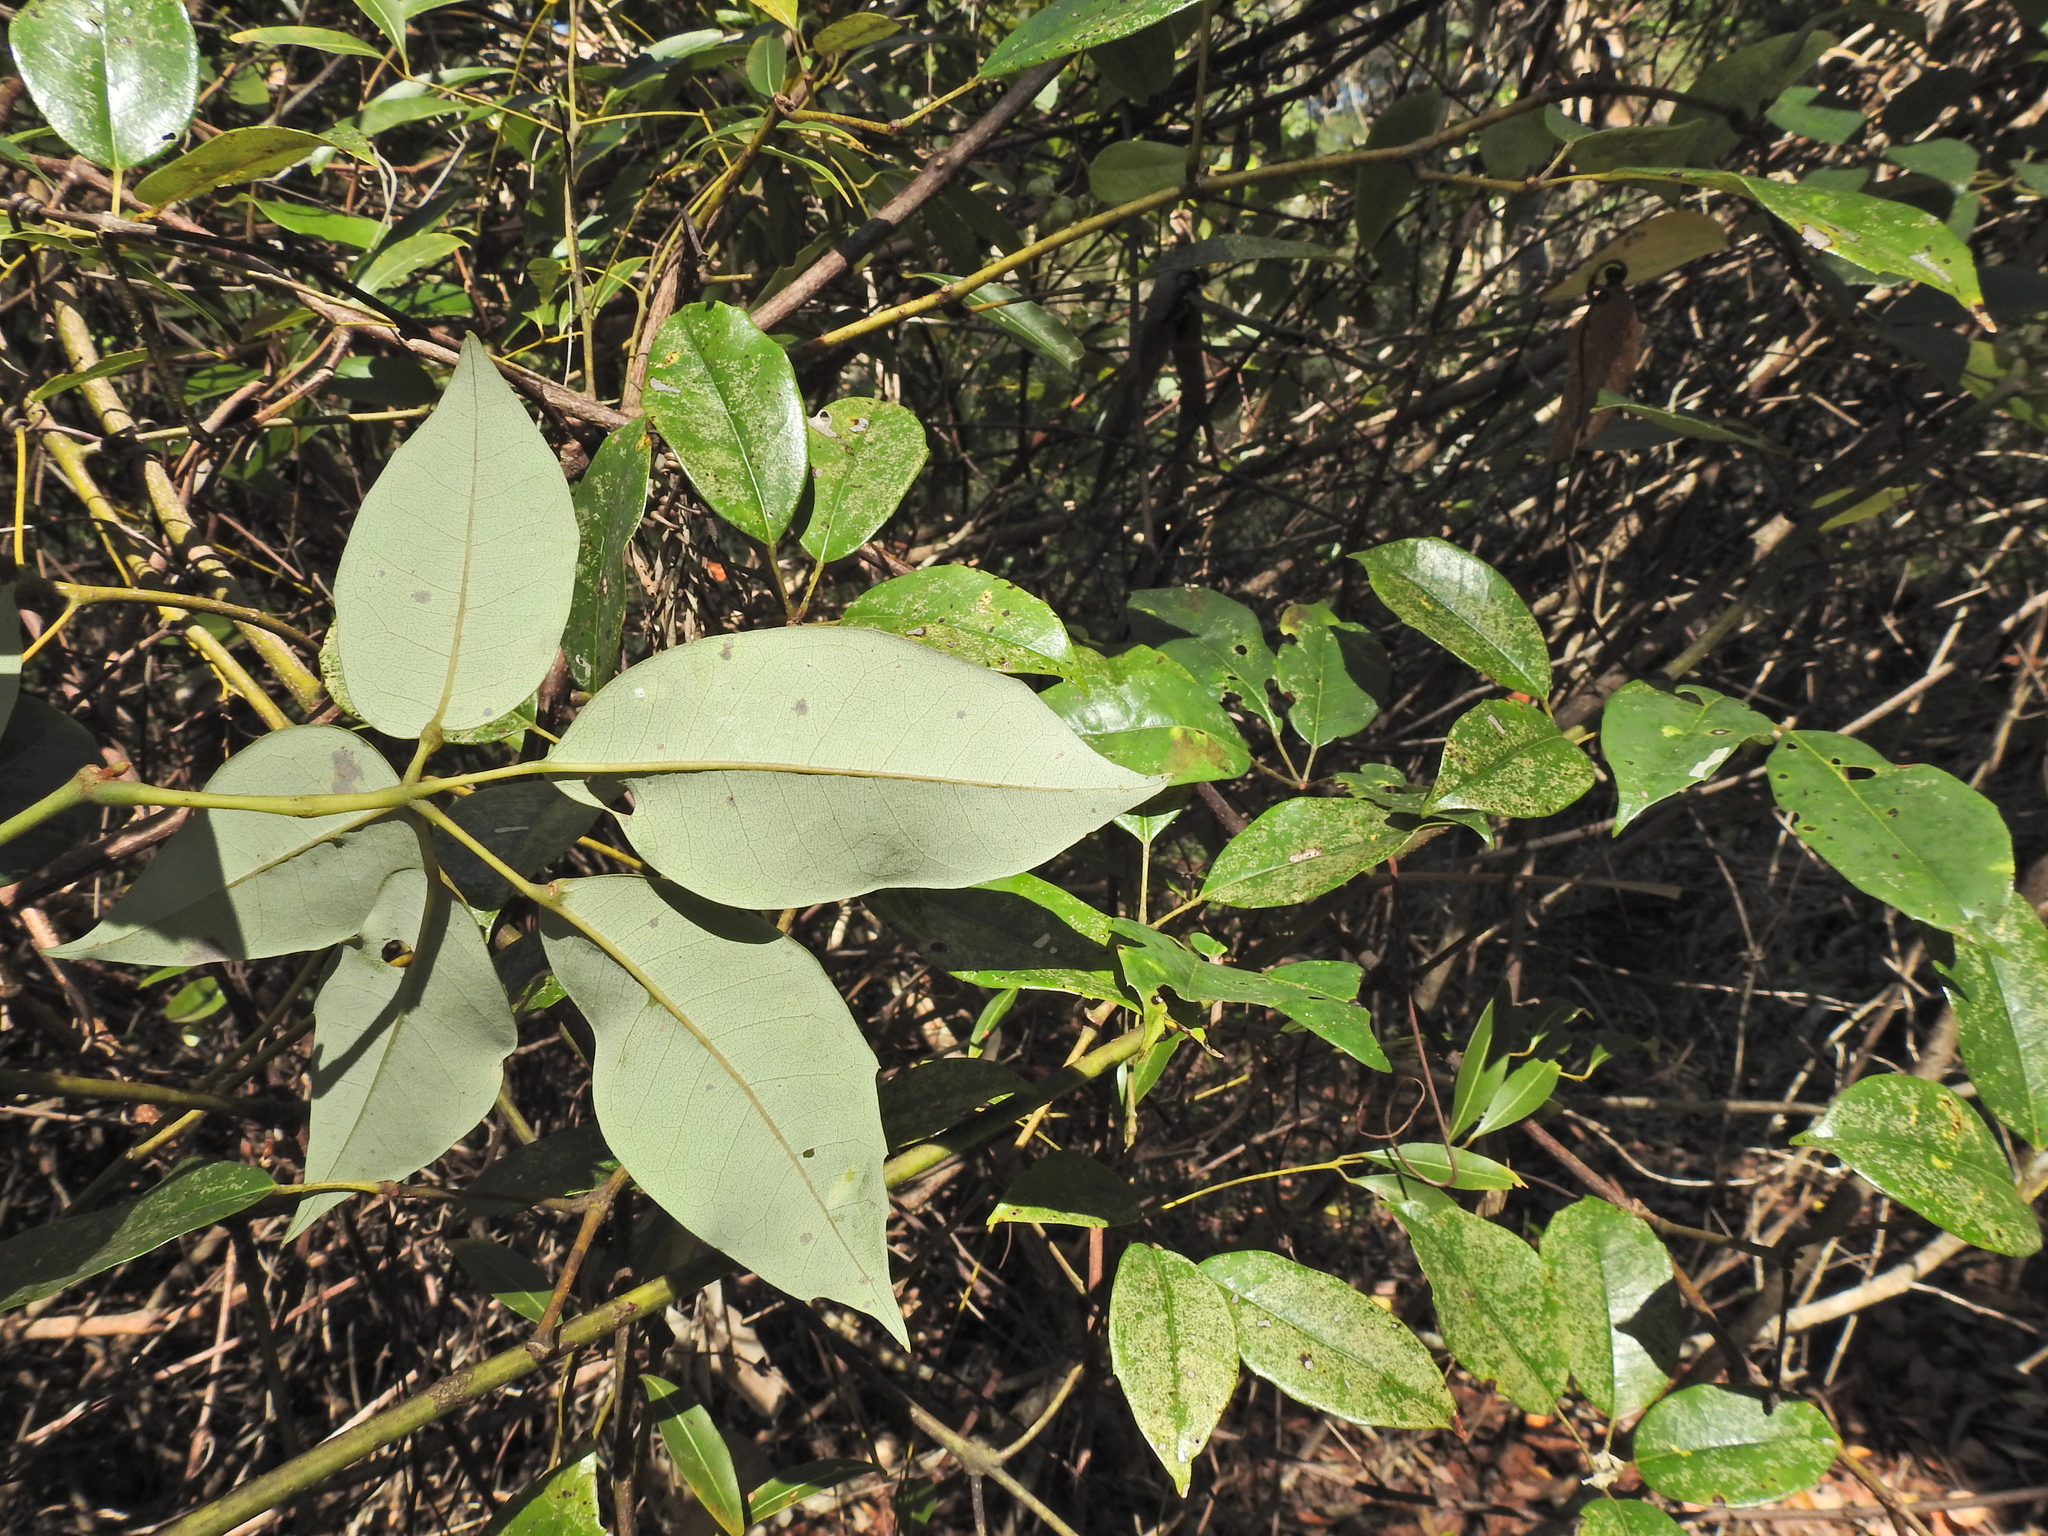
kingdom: Plantae
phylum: Tracheophyta
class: Magnoliopsida
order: Vitales
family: Vitaceae
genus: Nothocissus
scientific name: Nothocissus hypoglauca
